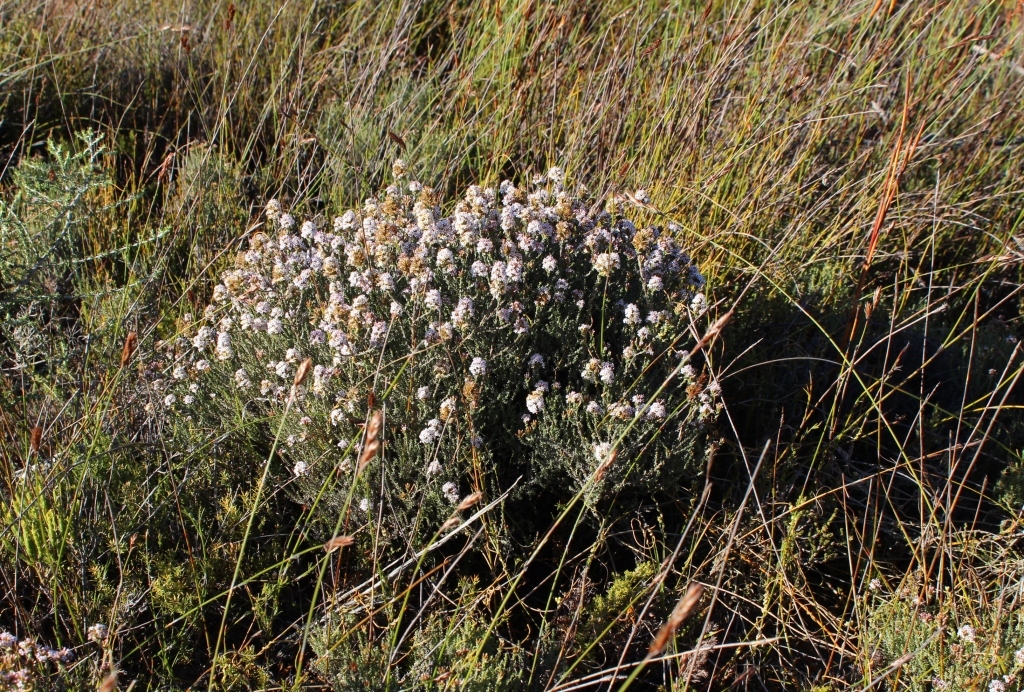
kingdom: Plantae
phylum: Tracheophyta
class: Magnoliopsida
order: Asterales
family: Asteraceae
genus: Stoebe
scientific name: Stoebe fusca
